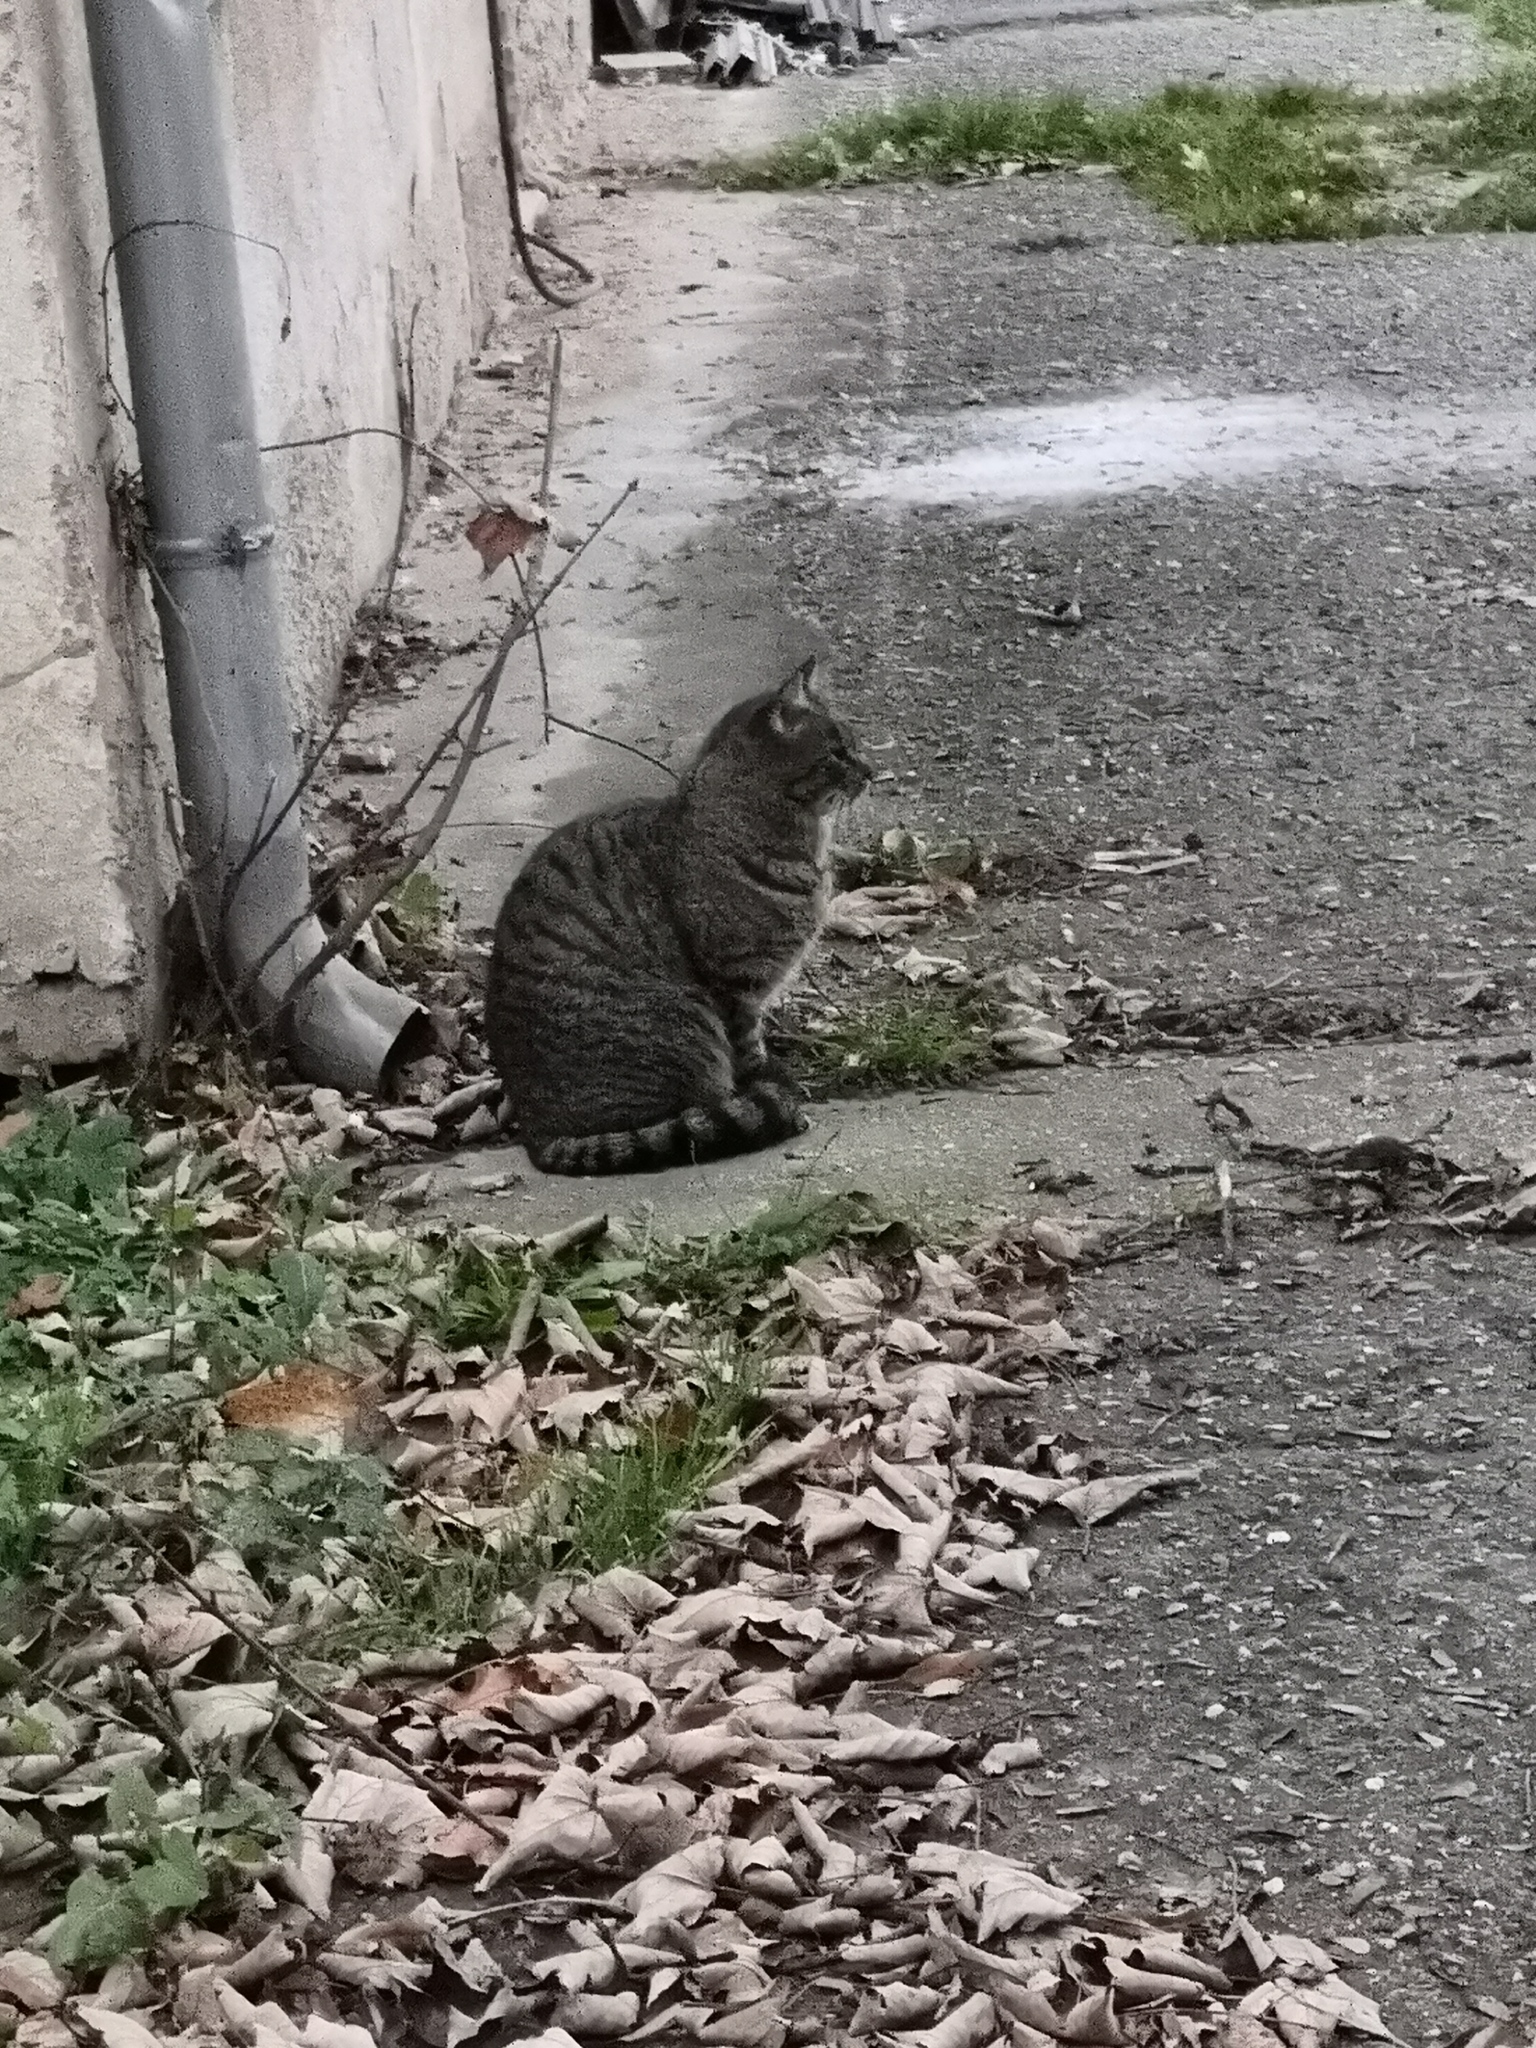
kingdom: Animalia
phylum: Chordata
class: Mammalia
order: Carnivora
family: Felidae
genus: Felis
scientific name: Felis catus
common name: Domestic cat
